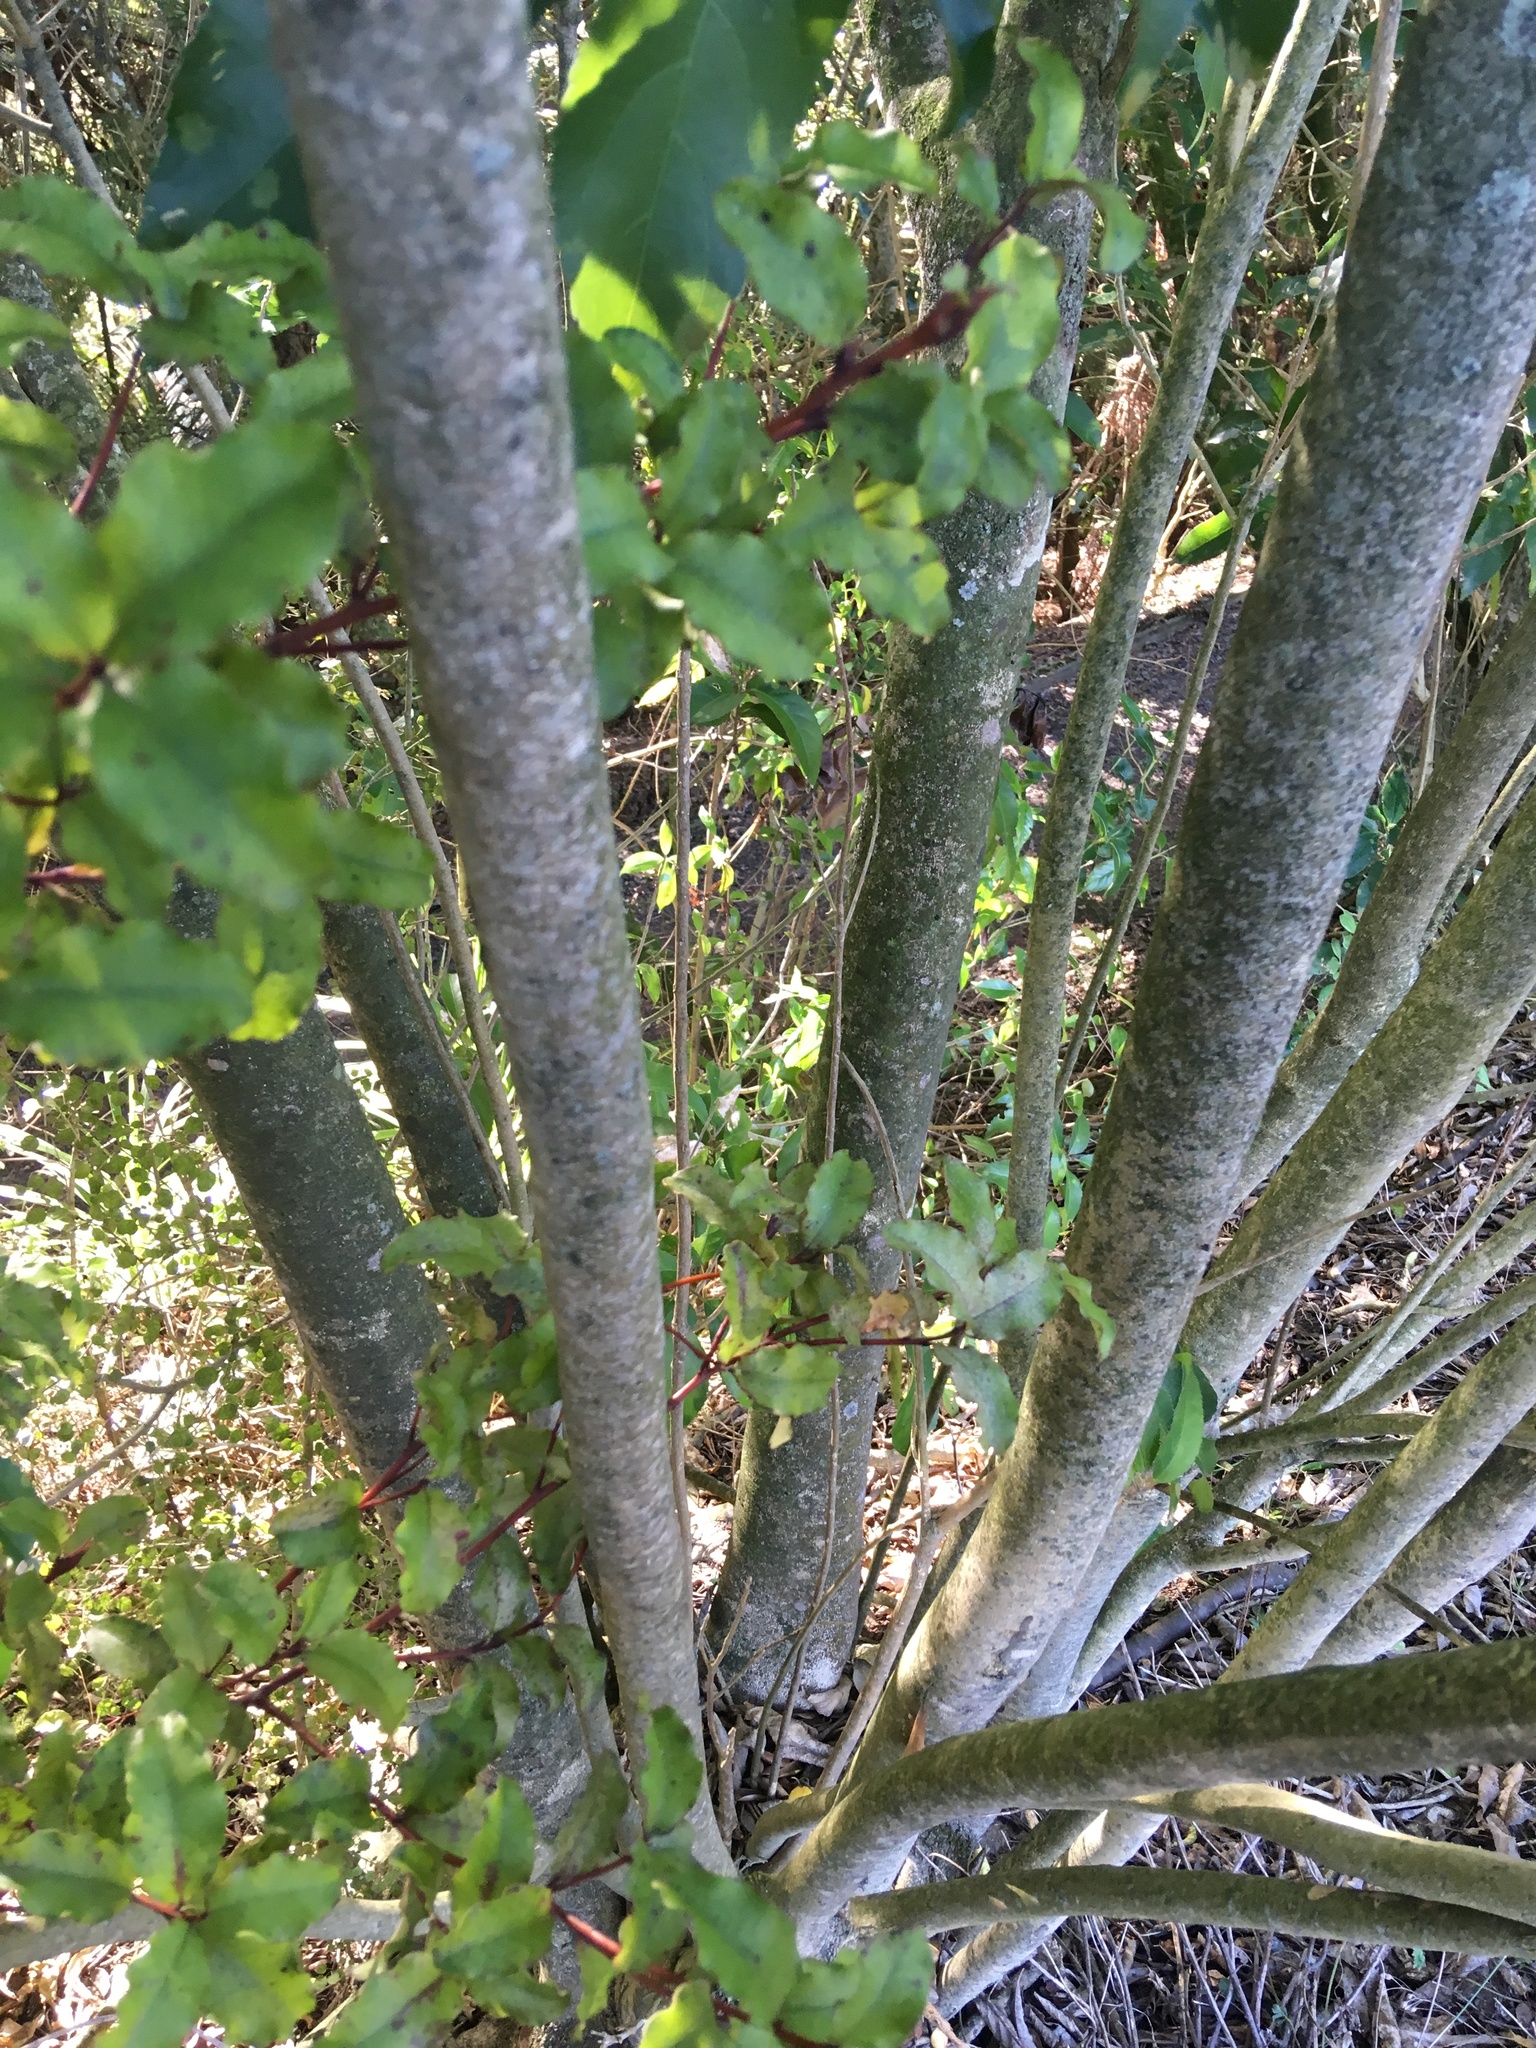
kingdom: Plantae
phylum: Tracheophyta
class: Magnoliopsida
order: Malpighiales
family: Violaceae
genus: Melicytus
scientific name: Melicytus ramiflorus
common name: Mahoe
